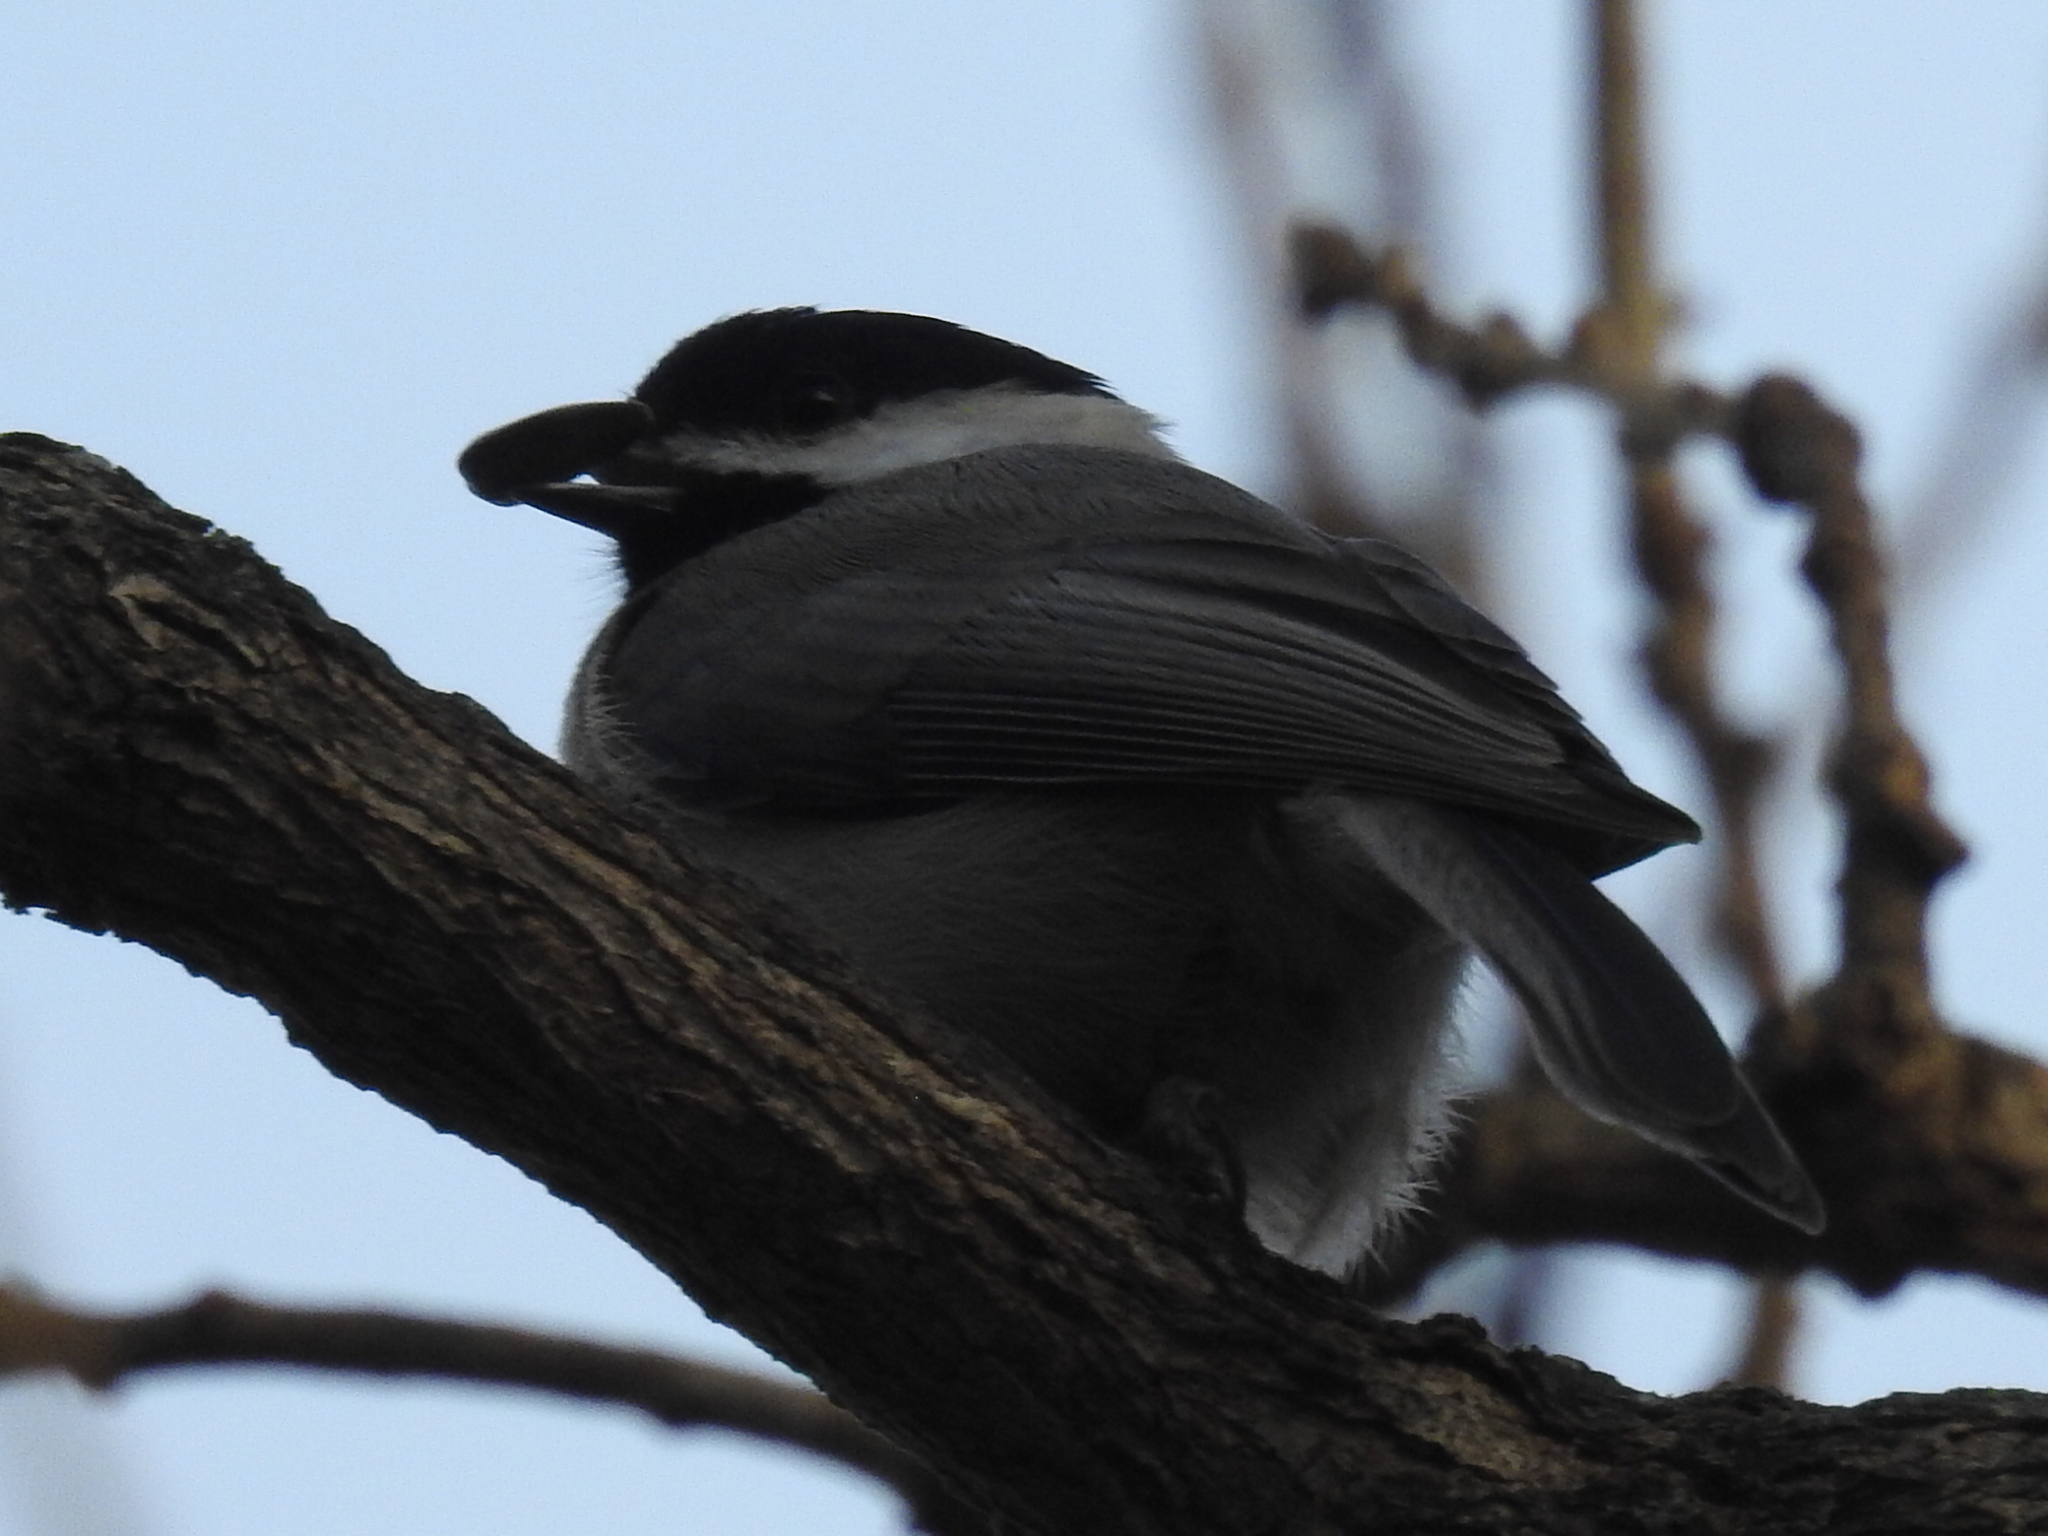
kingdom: Animalia
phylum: Chordata
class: Aves
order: Passeriformes
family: Paridae
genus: Poecile
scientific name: Poecile carolinensis
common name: Carolina chickadee
